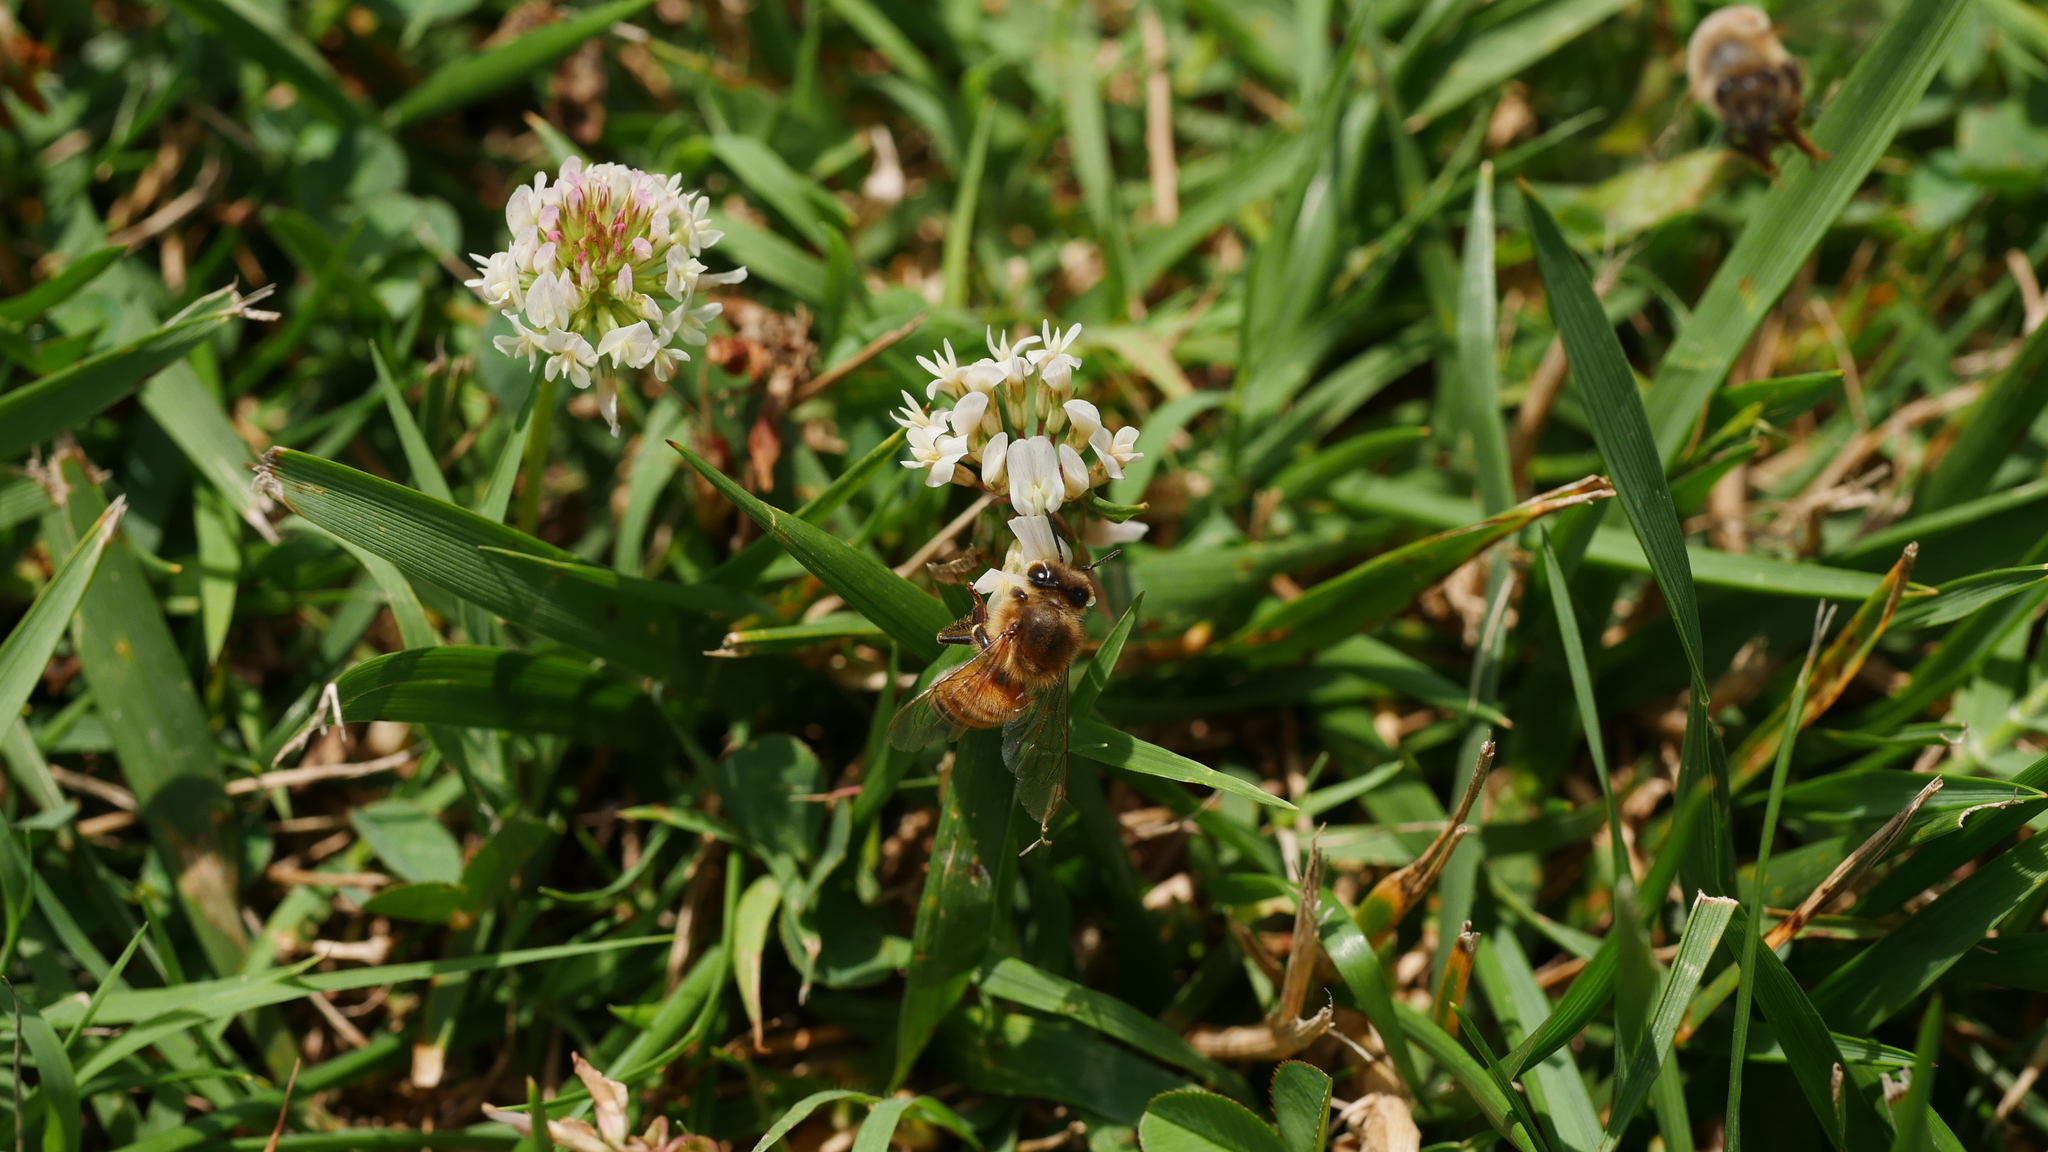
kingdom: Animalia
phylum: Arthropoda
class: Insecta
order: Hymenoptera
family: Apidae
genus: Apis
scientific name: Apis mellifera
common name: Honey bee
